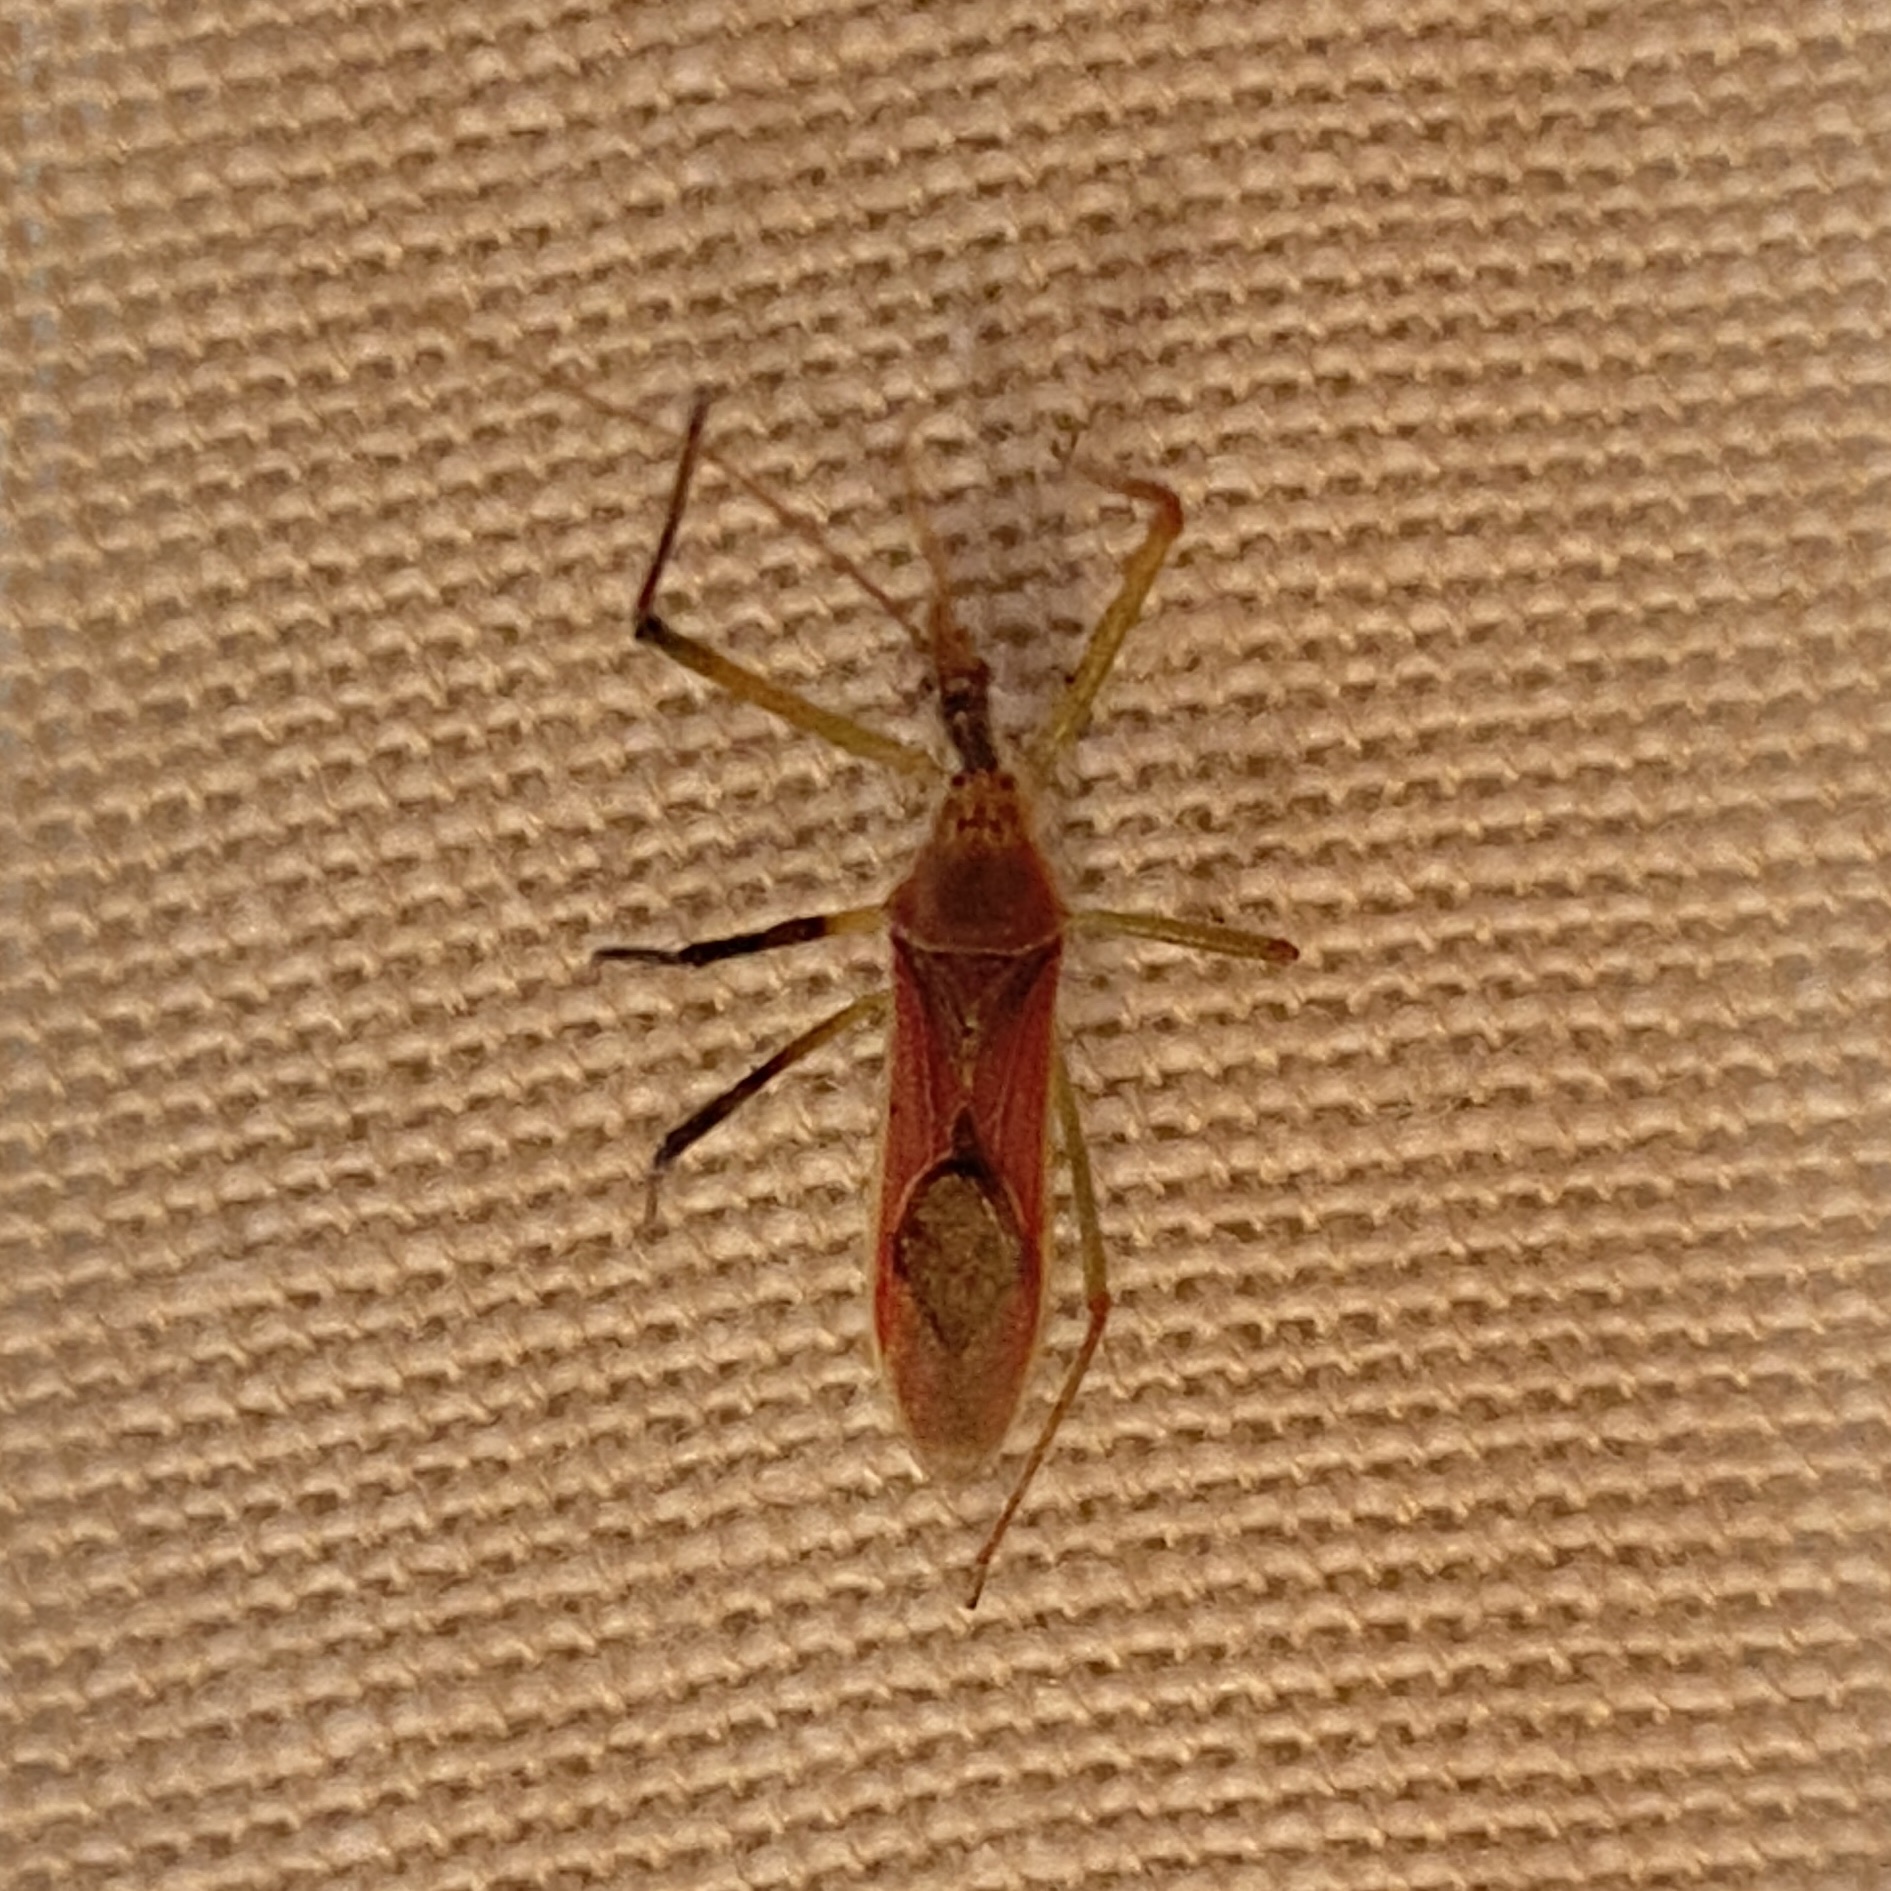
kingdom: Animalia
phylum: Arthropoda
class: Insecta
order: Hemiptera
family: Reduviidae
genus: Zelus
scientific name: Zelus renardii
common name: Assassin bug
